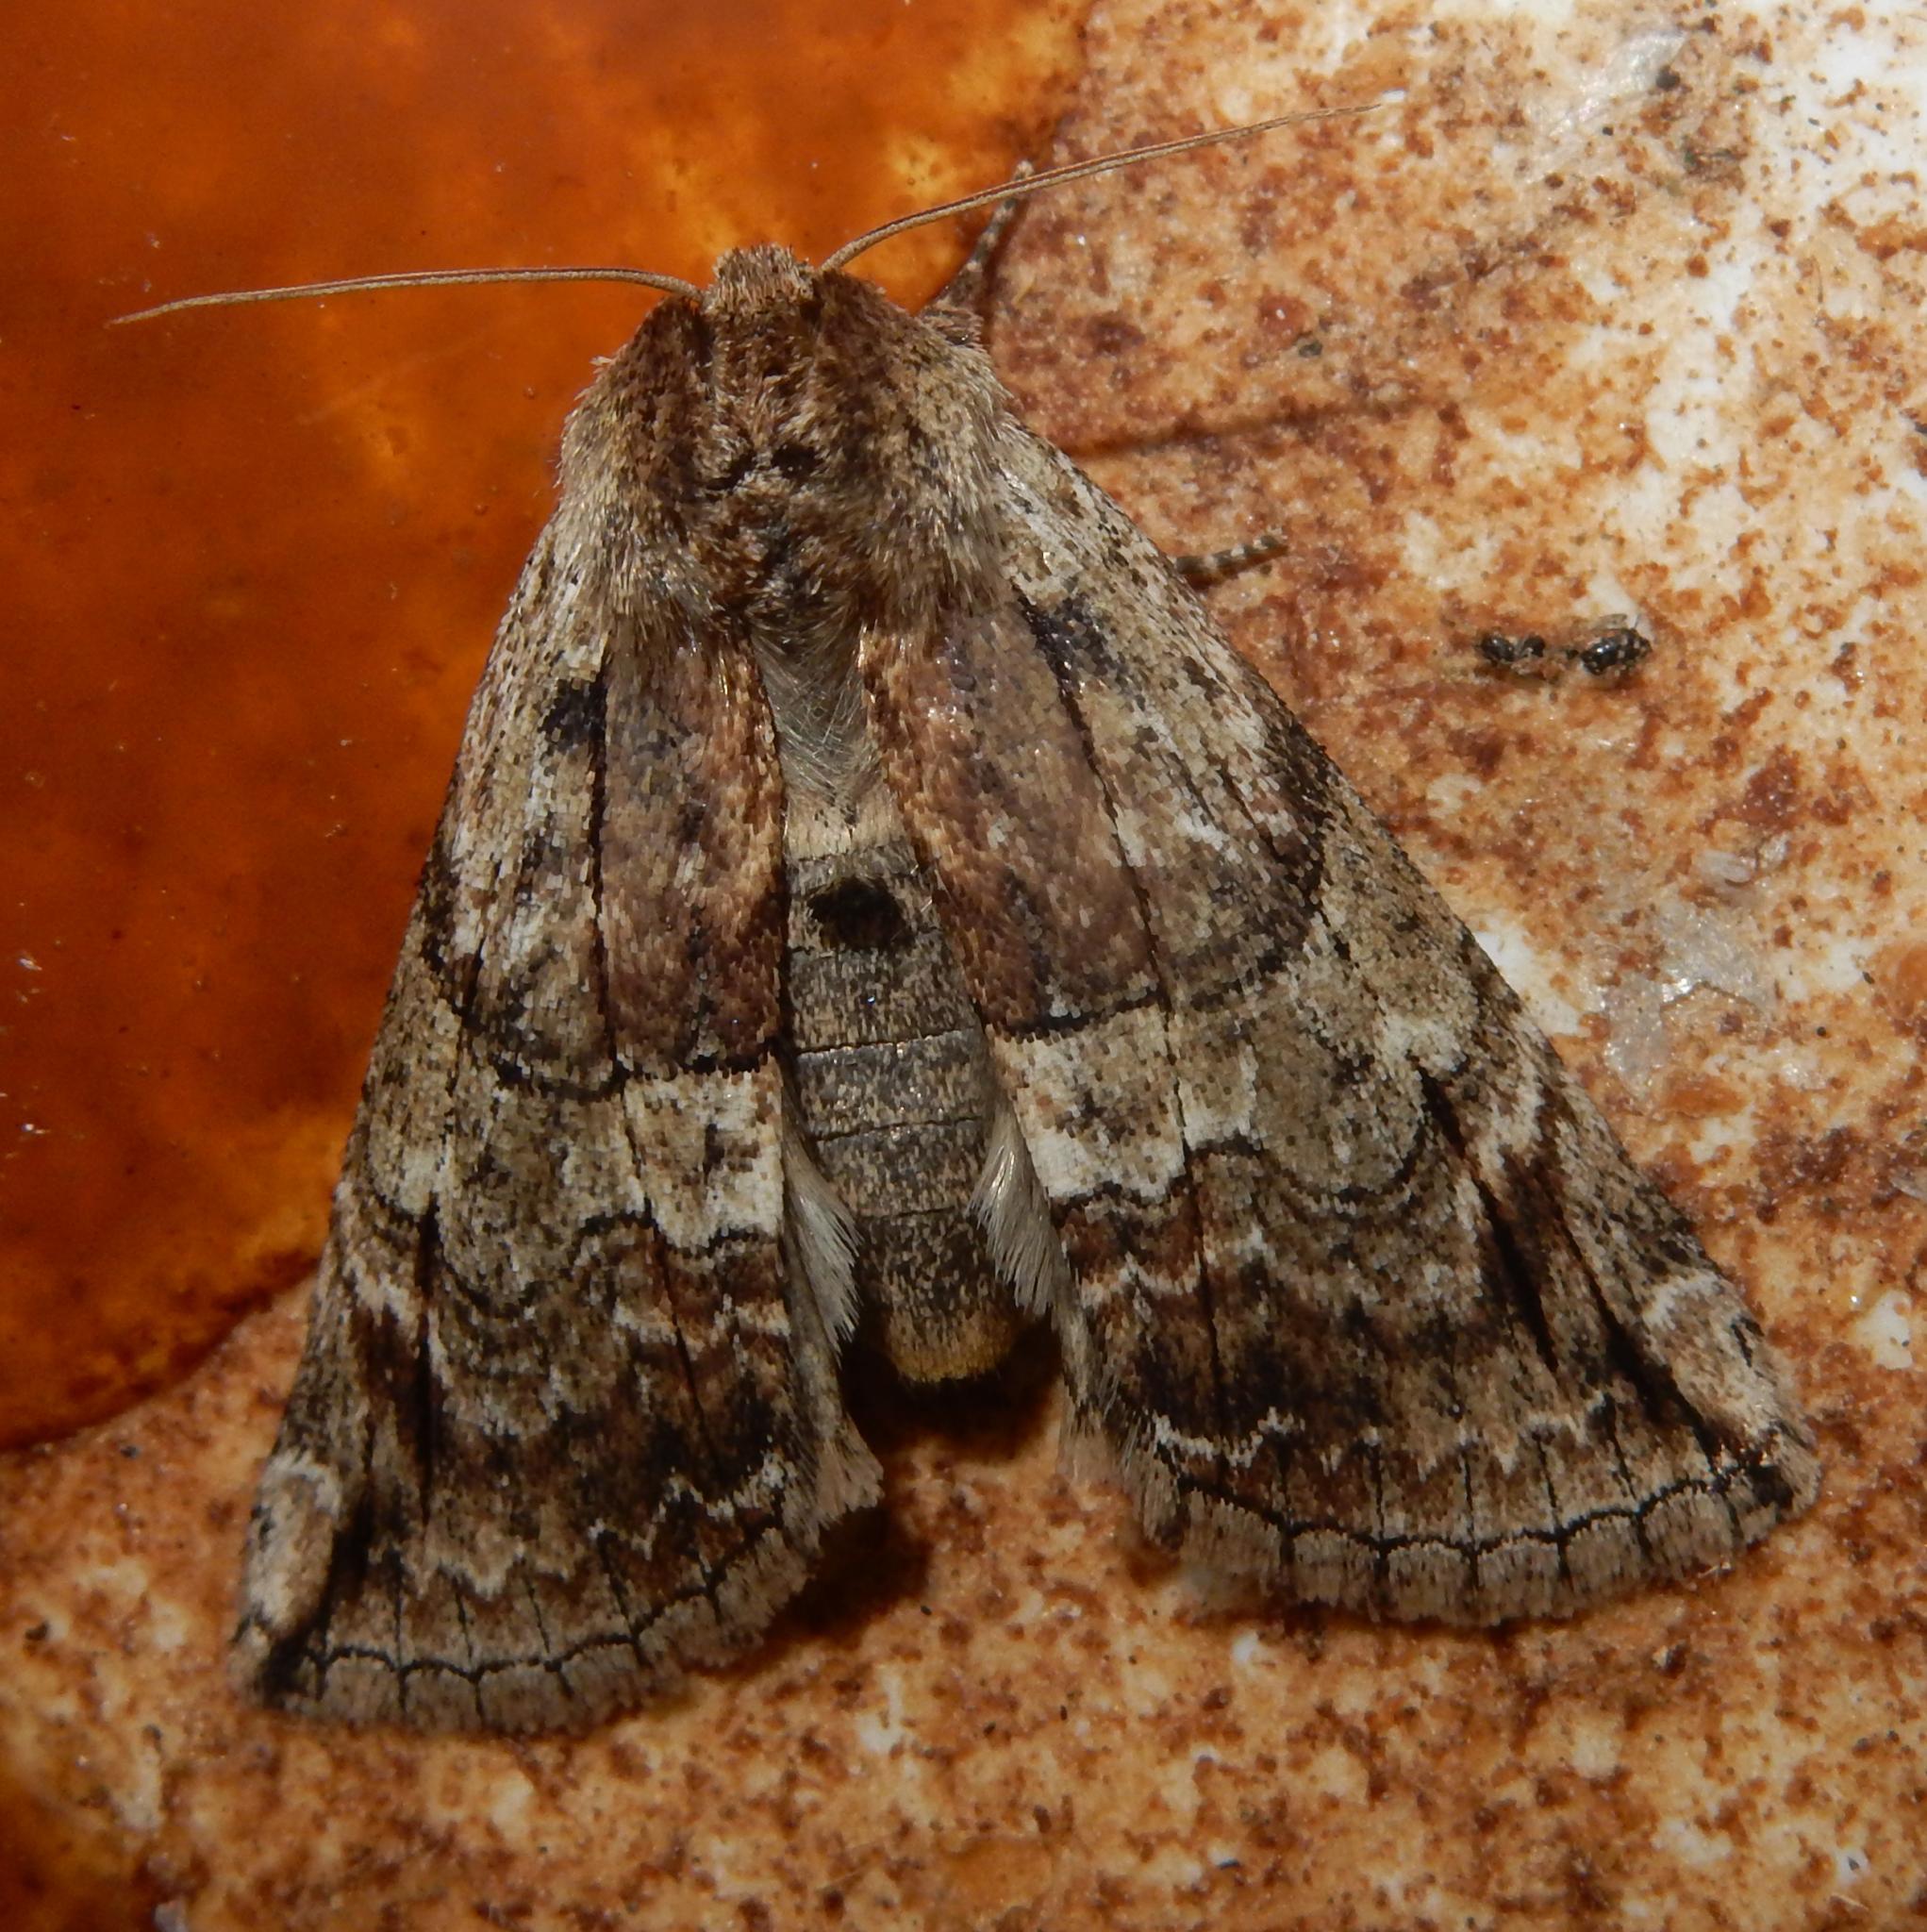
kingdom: Animalia
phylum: Arthropoda
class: Insecta
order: Lepidoptera
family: Drepanidae
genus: Aethiopsestis
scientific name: Aethiopsestis austrina
